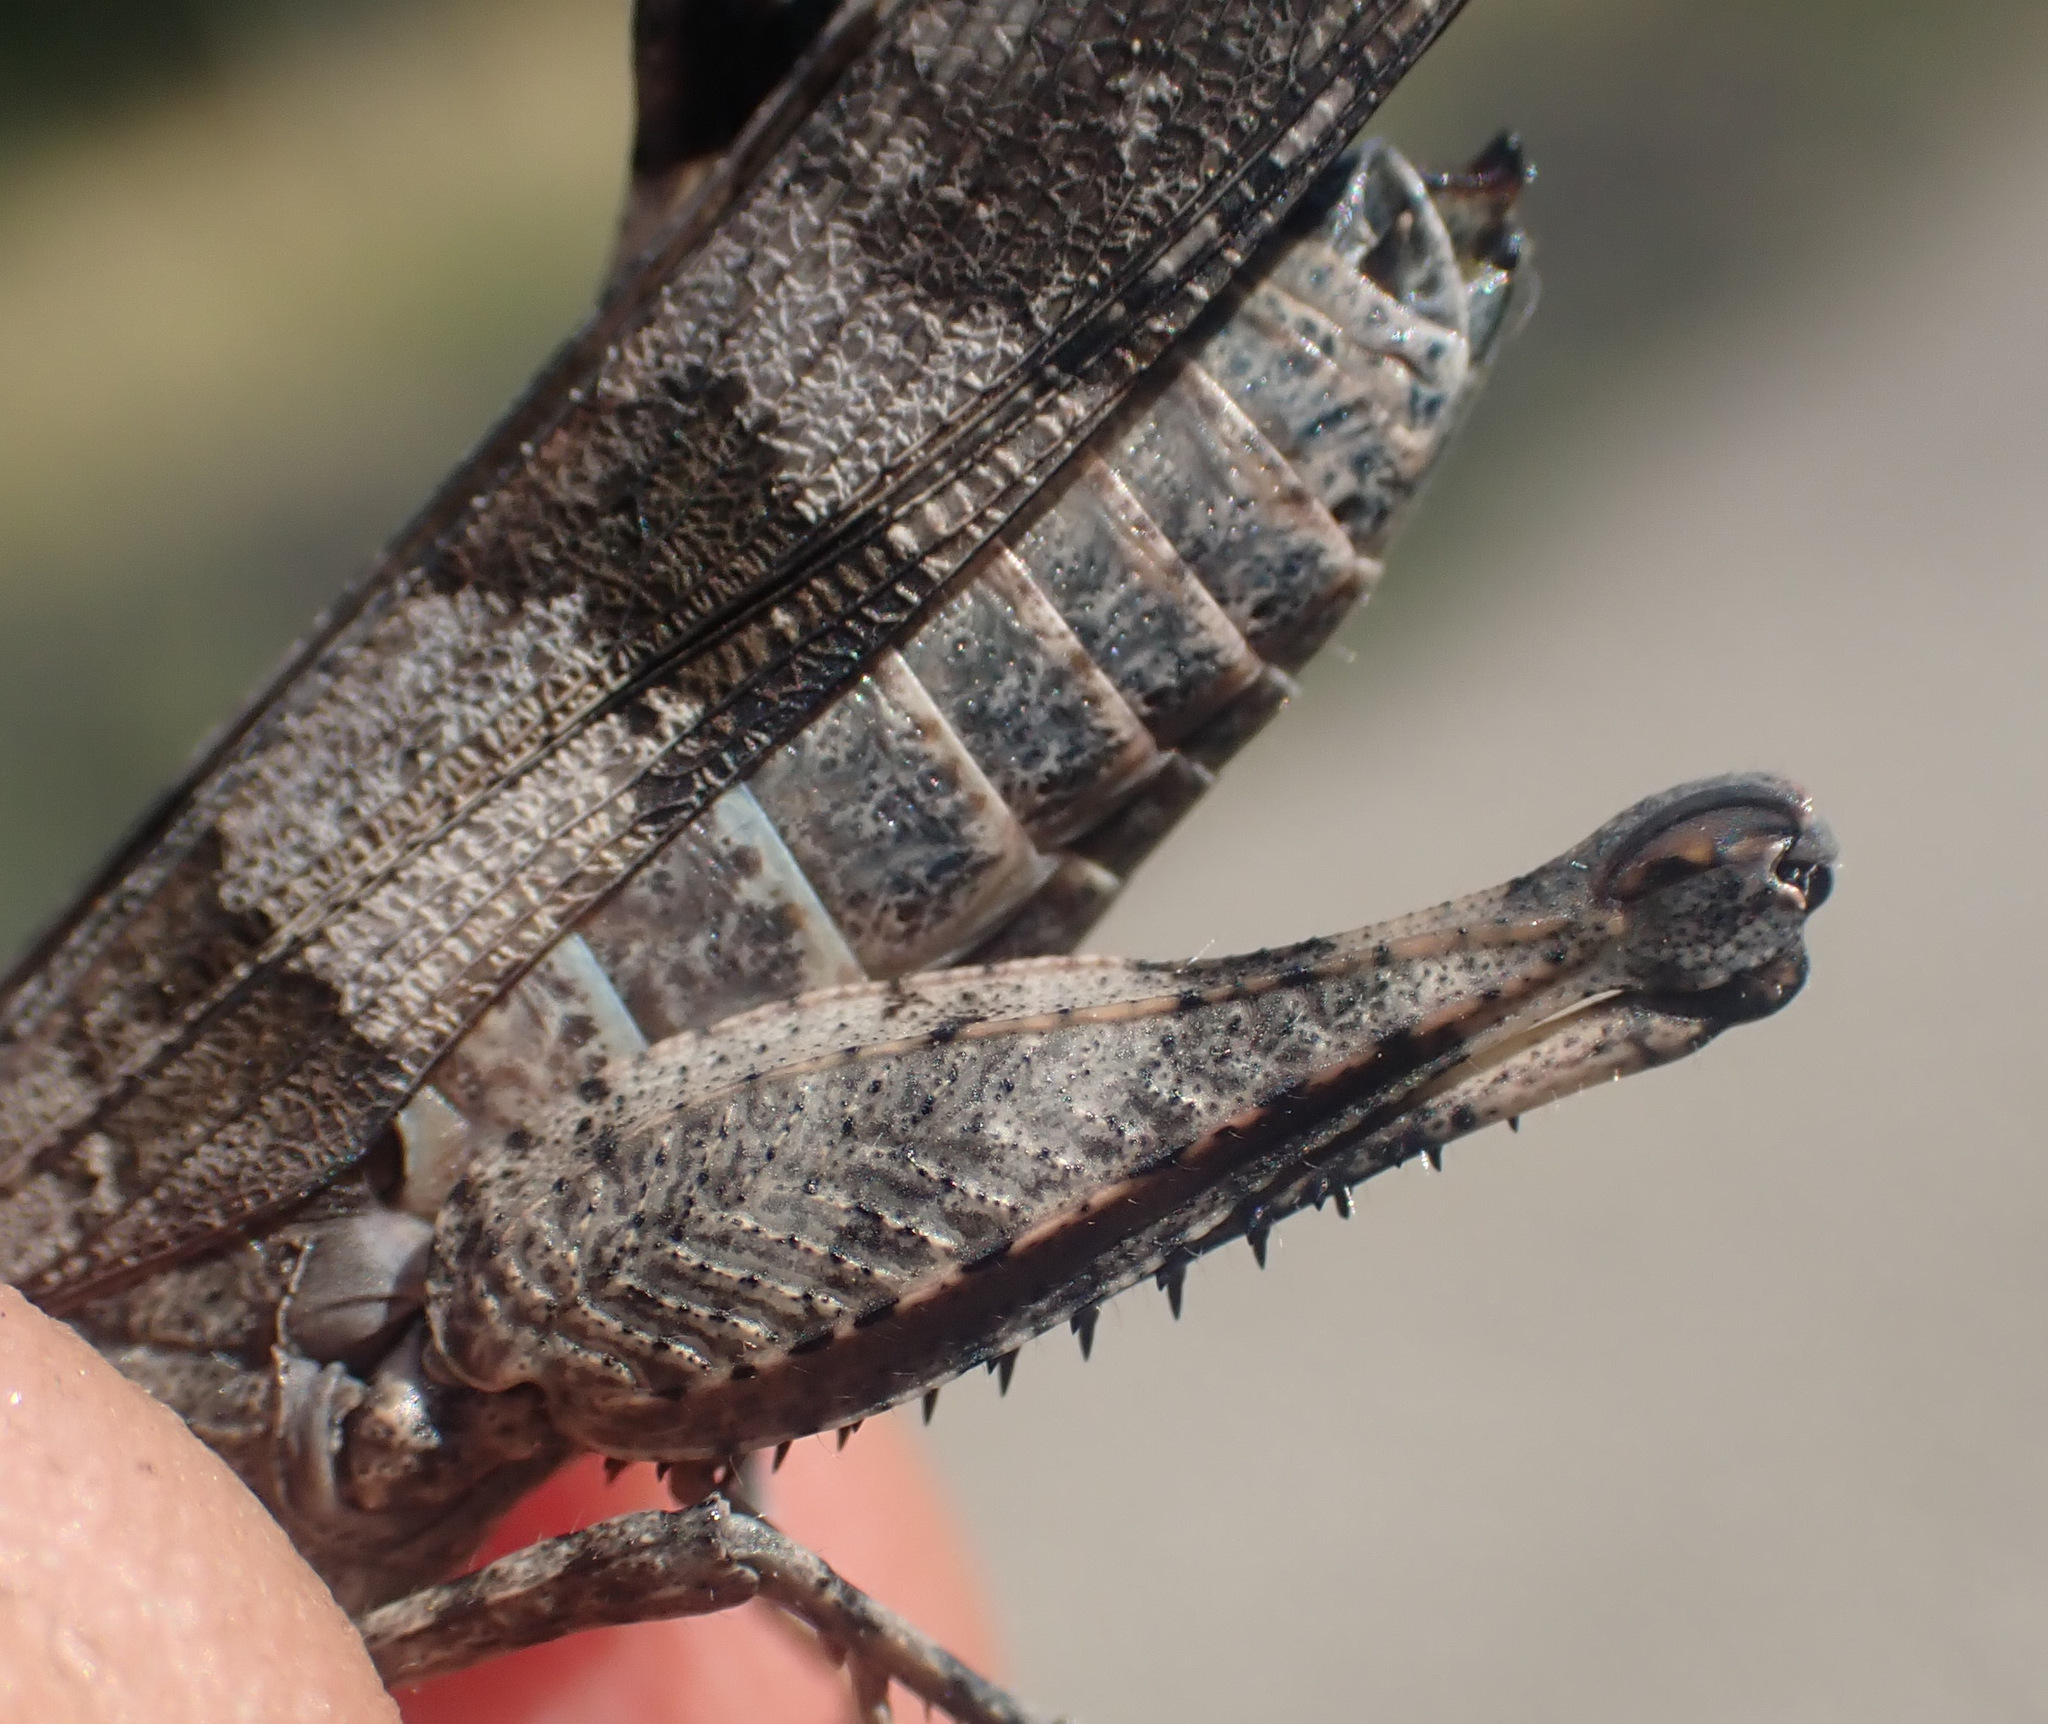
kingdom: Animalia
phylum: Arthropoda
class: Insecta
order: Orthoptera
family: Acrididae
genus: Oedipoda
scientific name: Oedipoda caerulescens
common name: Blue-winged grasshopper
